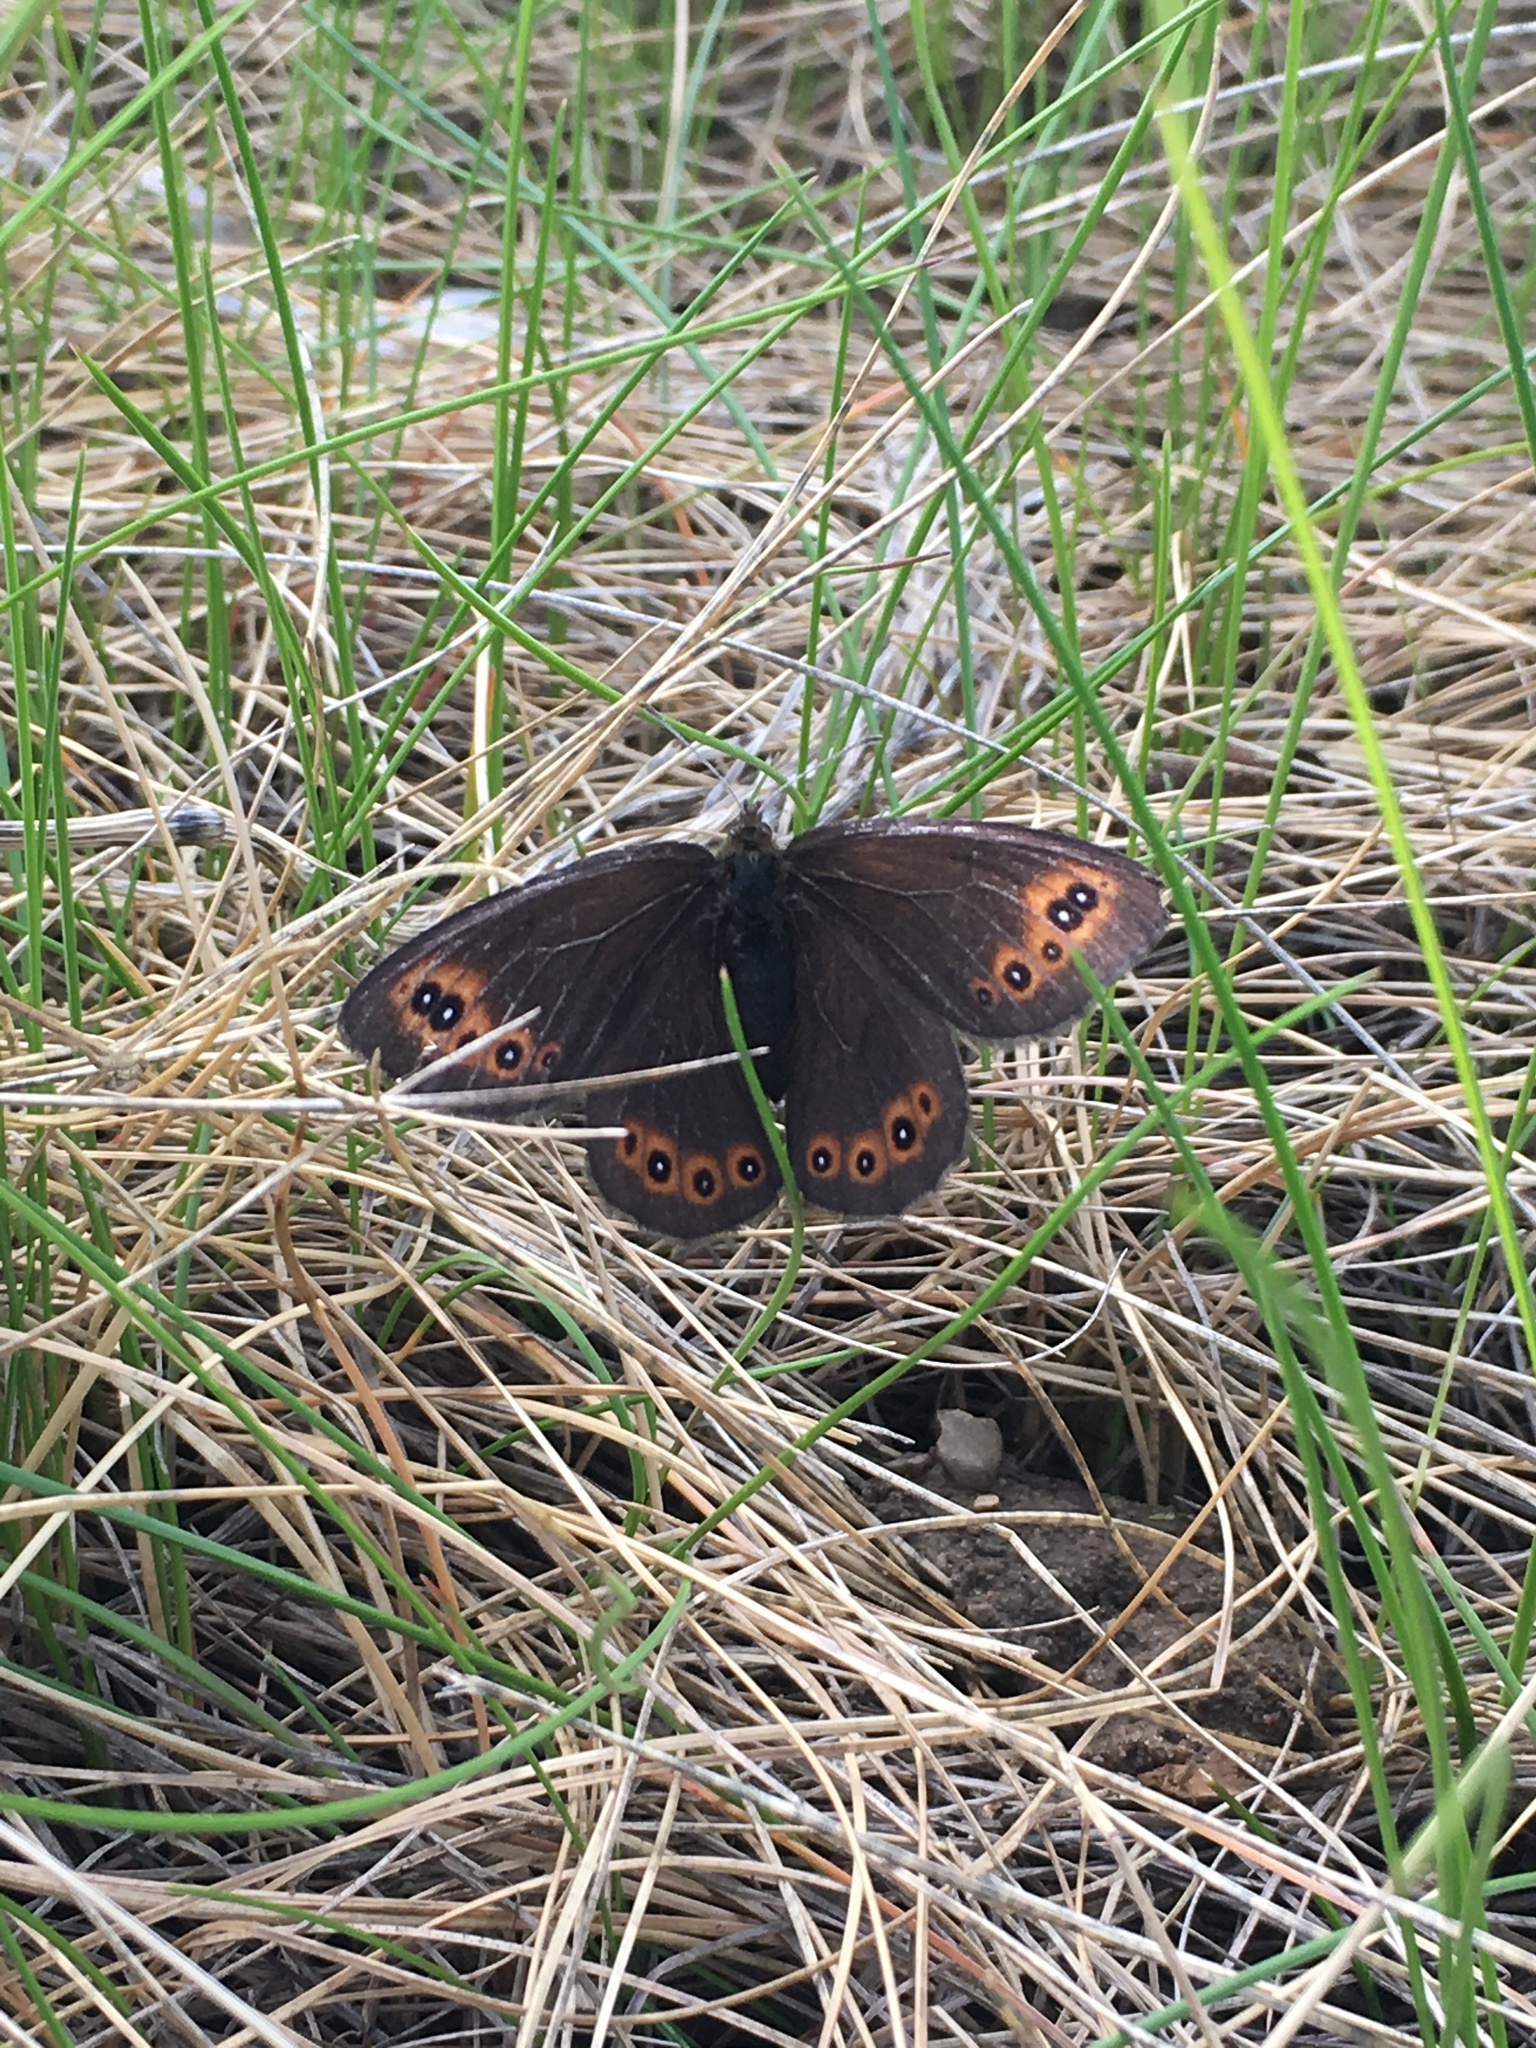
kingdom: Animalia
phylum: Arthropoda
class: Insecta
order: Lepidoptera
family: Nymphalidae
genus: Erebia
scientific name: Erebia epipsodea
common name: Common alpine
